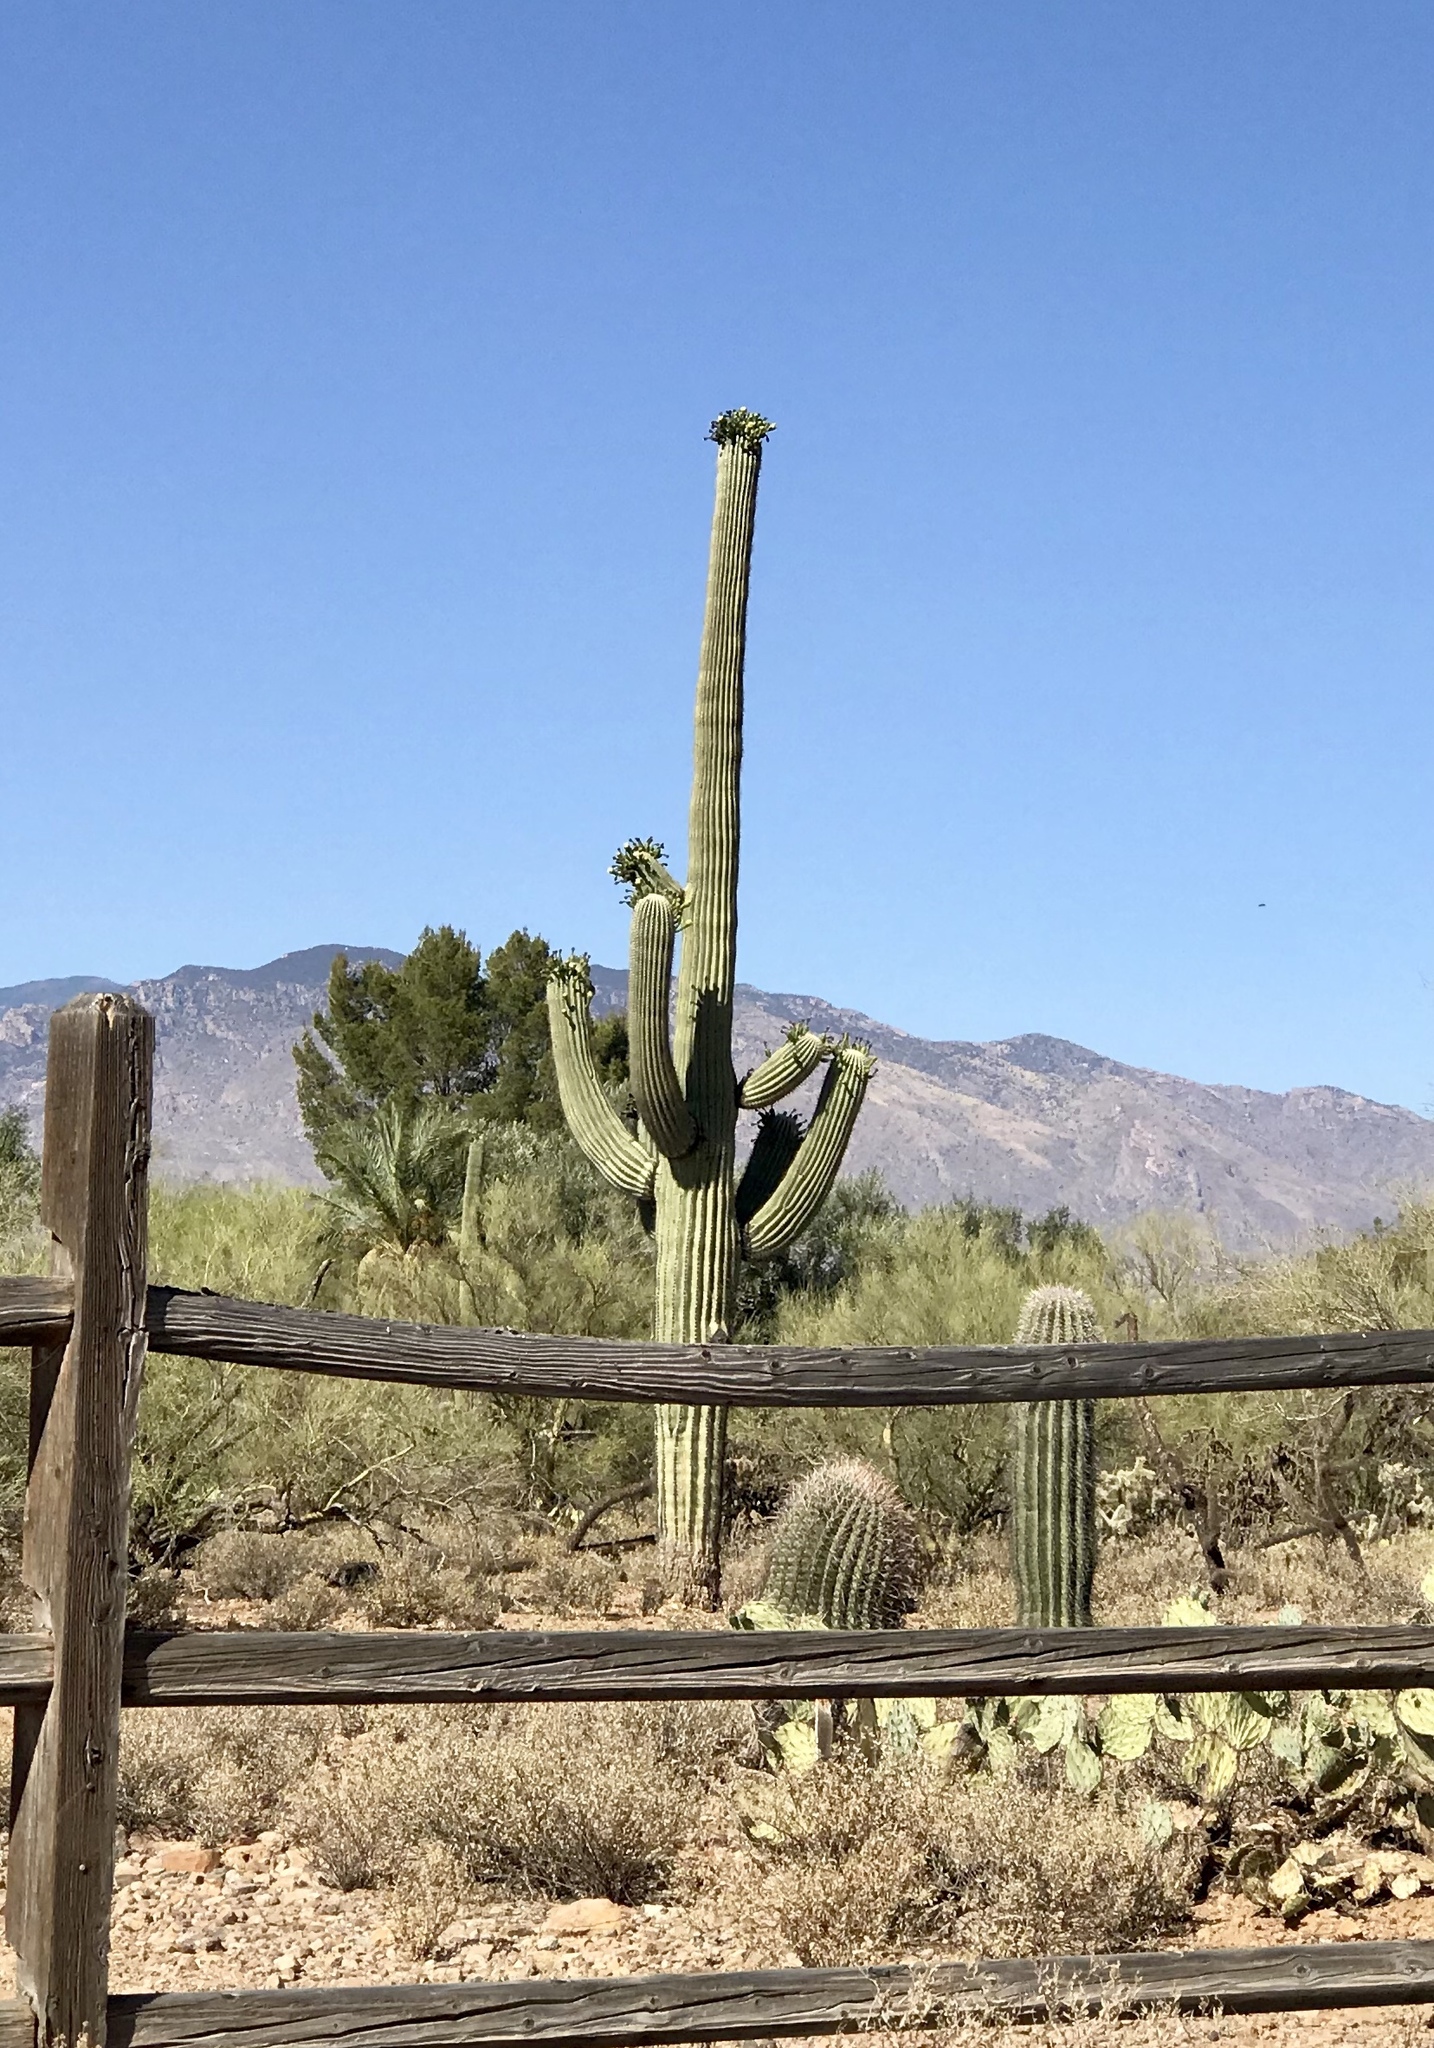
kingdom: Plantae
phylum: Tracheophyta
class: Magnoliopsida
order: Caryophyllales
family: Cactaceae
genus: Carnegiea
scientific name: Carnegiea gigantea
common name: Saguaro
